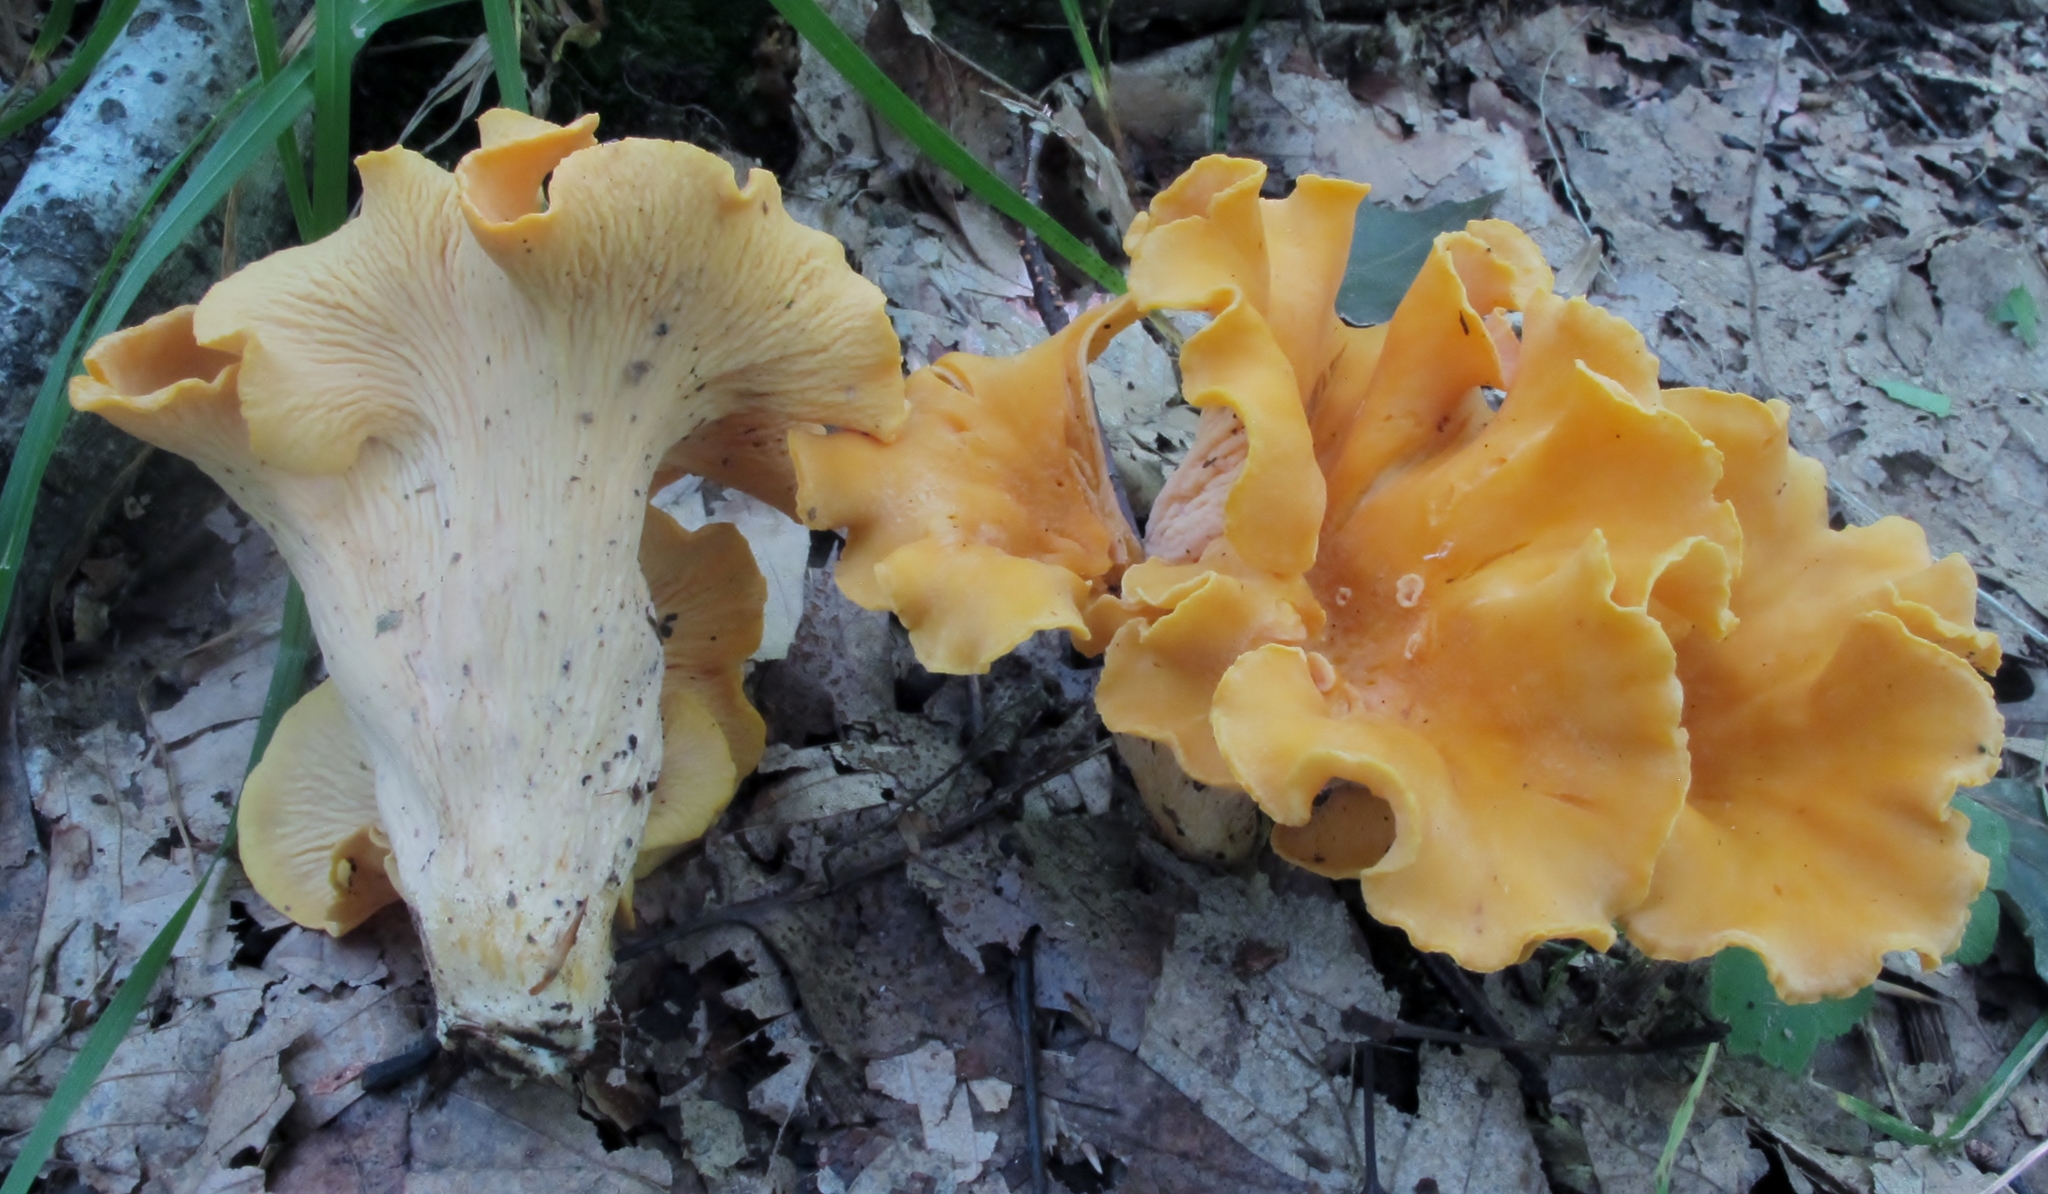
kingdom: Fungi
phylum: Basidiomycota
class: Agaricomycetes
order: Cantharellales
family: Hydnaceae
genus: Cantharellus
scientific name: Cantharellus lateritius
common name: Smooth chanterelle
